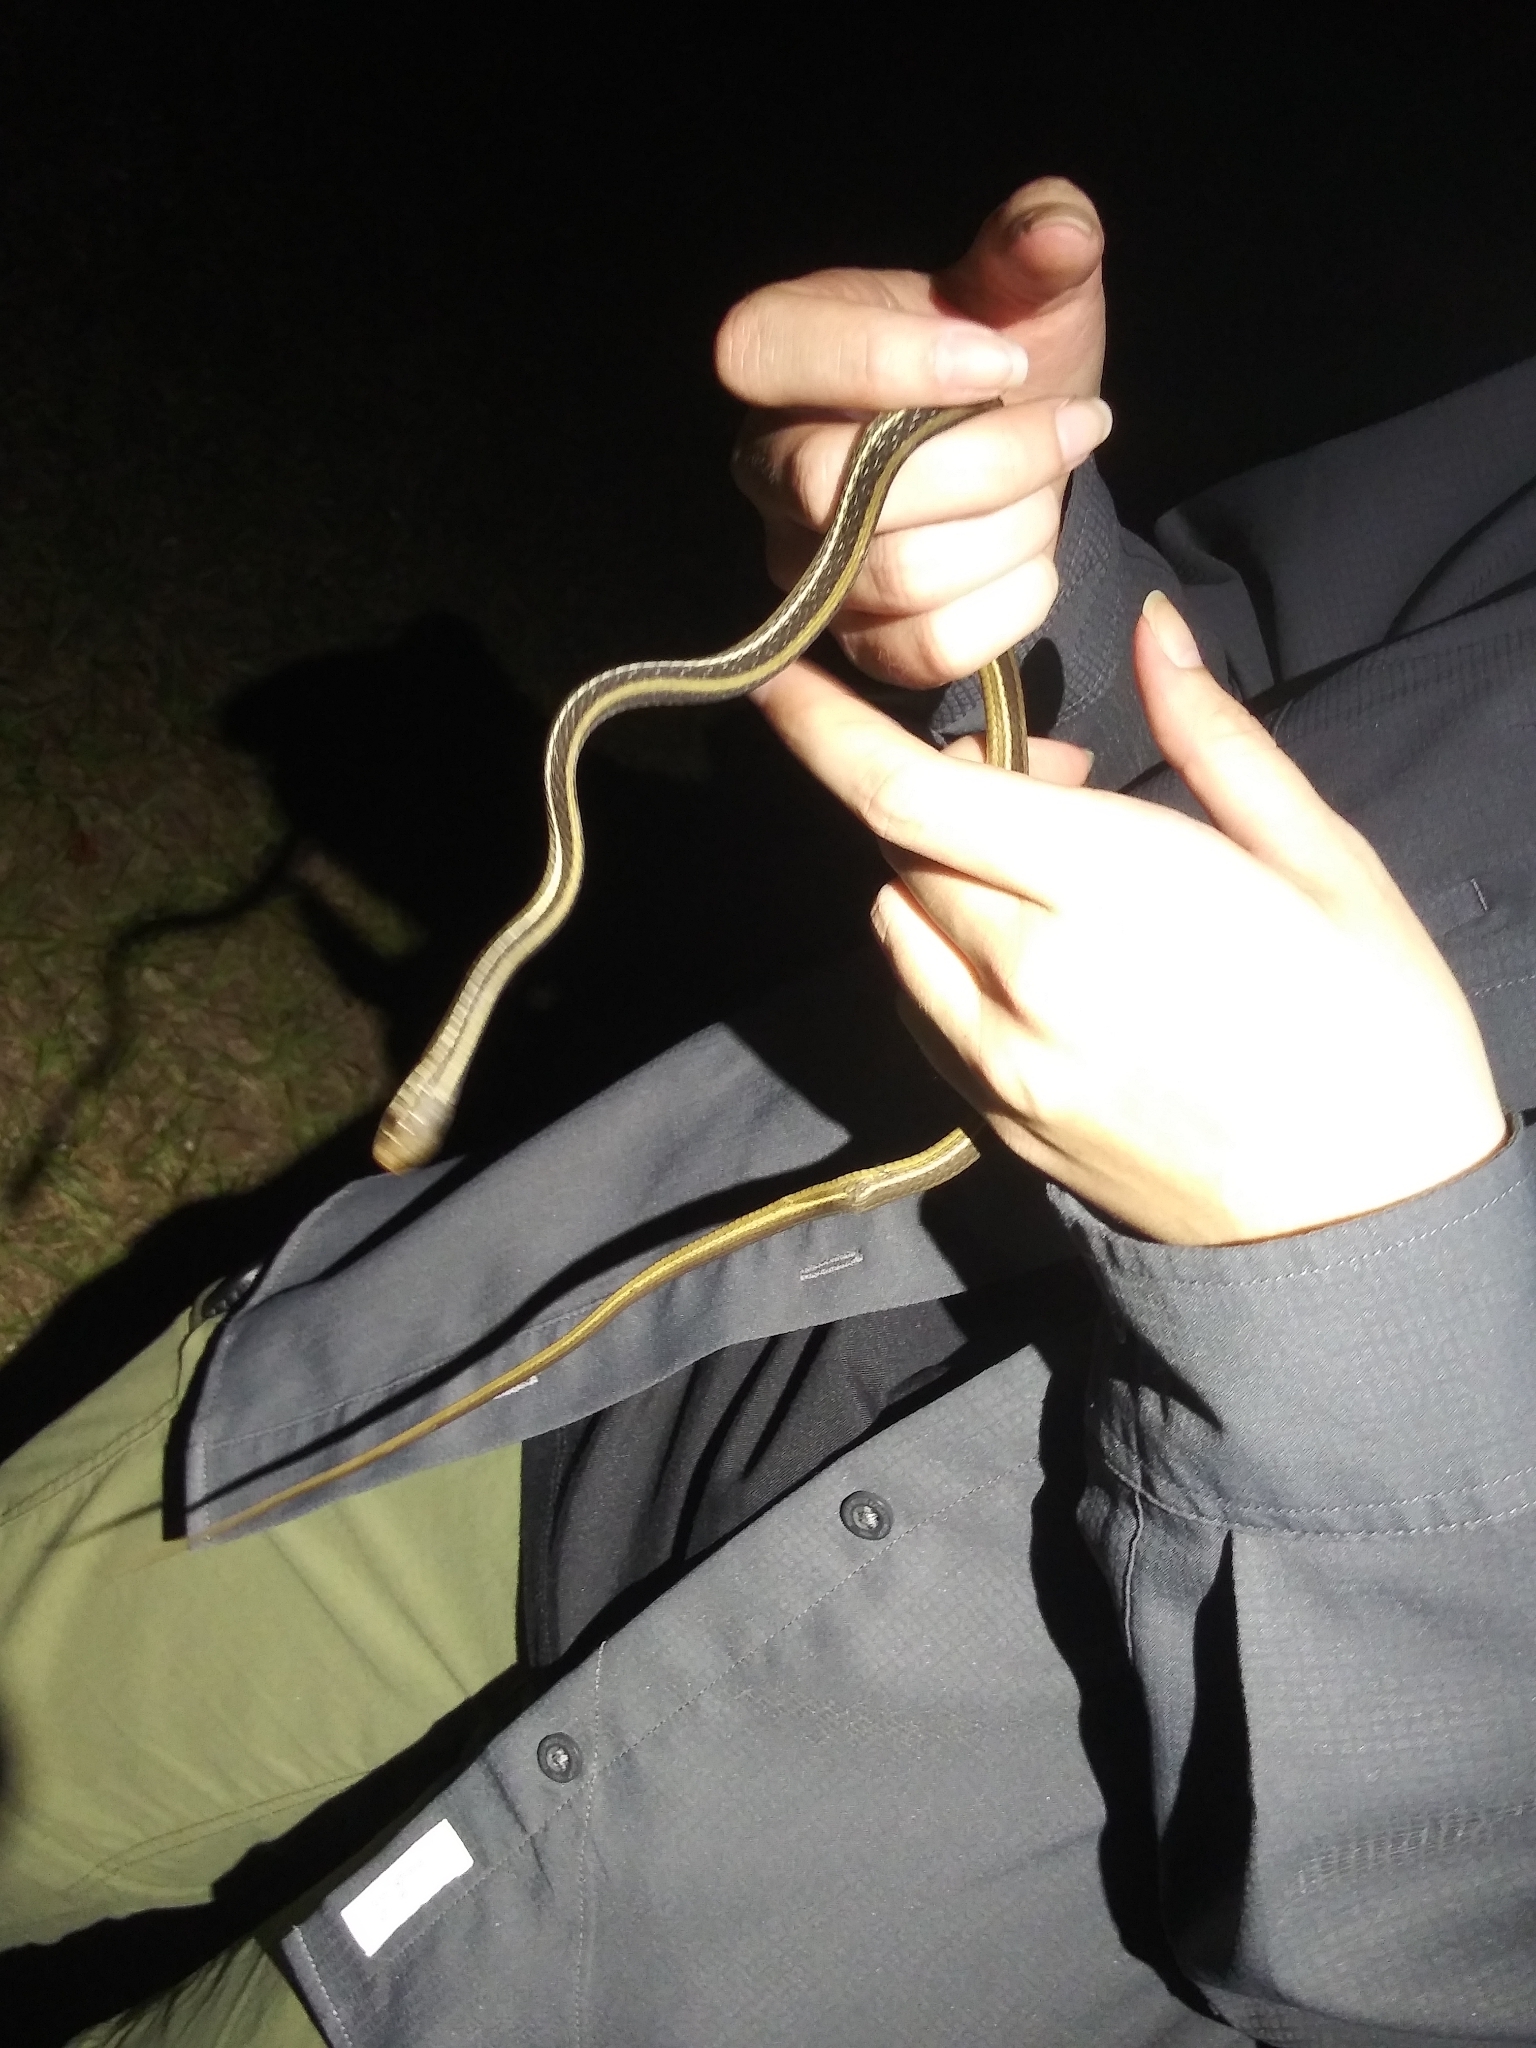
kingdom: Animalia
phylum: Chordata
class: Squamata
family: Colubridae
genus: Thamnophis
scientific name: Thamnophis saurita
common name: Eastern ribbonsnake
